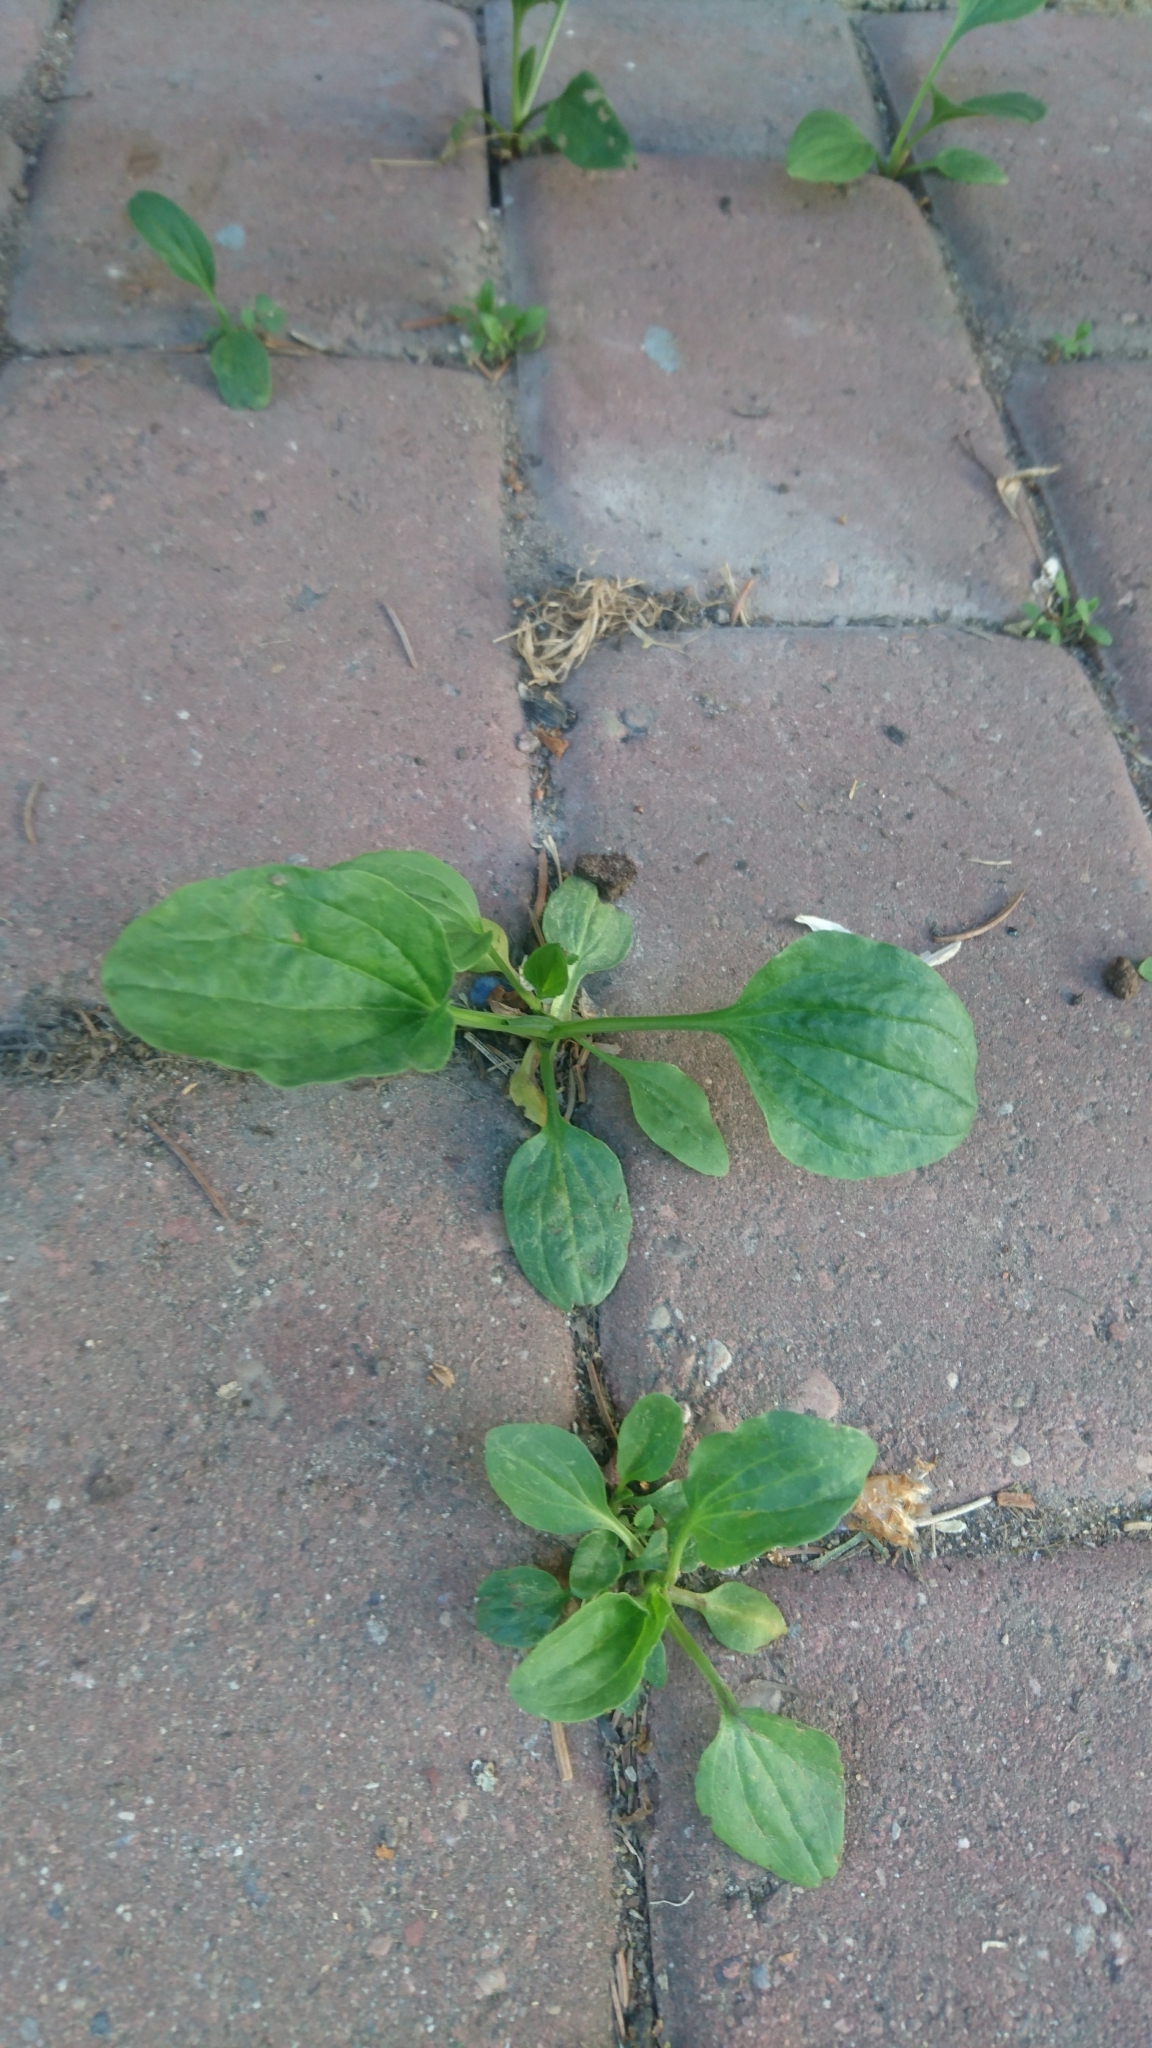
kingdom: Plantae
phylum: Tracheophyta
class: Magnoliopsida
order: Lamiales
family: Plantaginaceae
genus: Plantago
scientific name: Plantago major
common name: Common plantain
